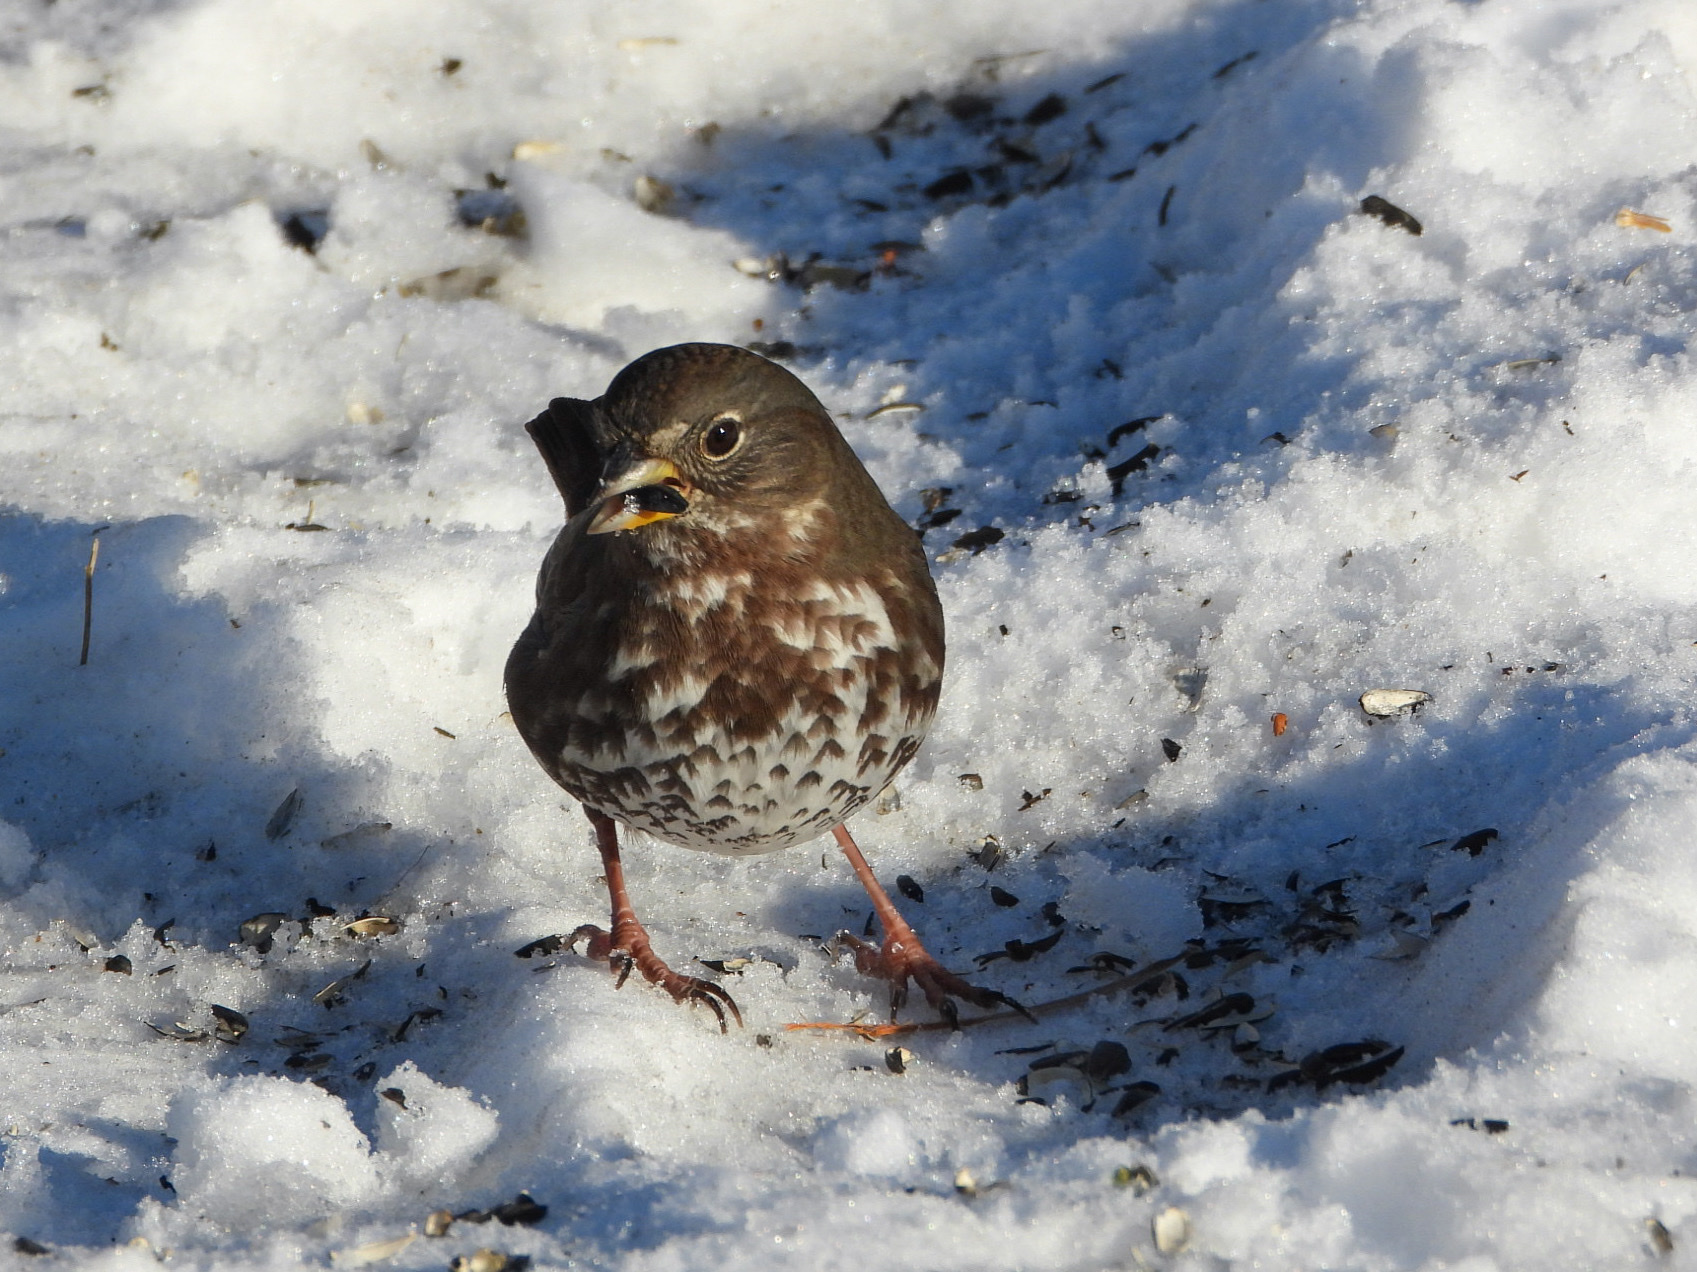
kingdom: Animalia
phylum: Chordata
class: Aves
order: Passeriformes
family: Passerellidae
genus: Passerella
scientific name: Passerella iliaca
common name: Fox sparrow
